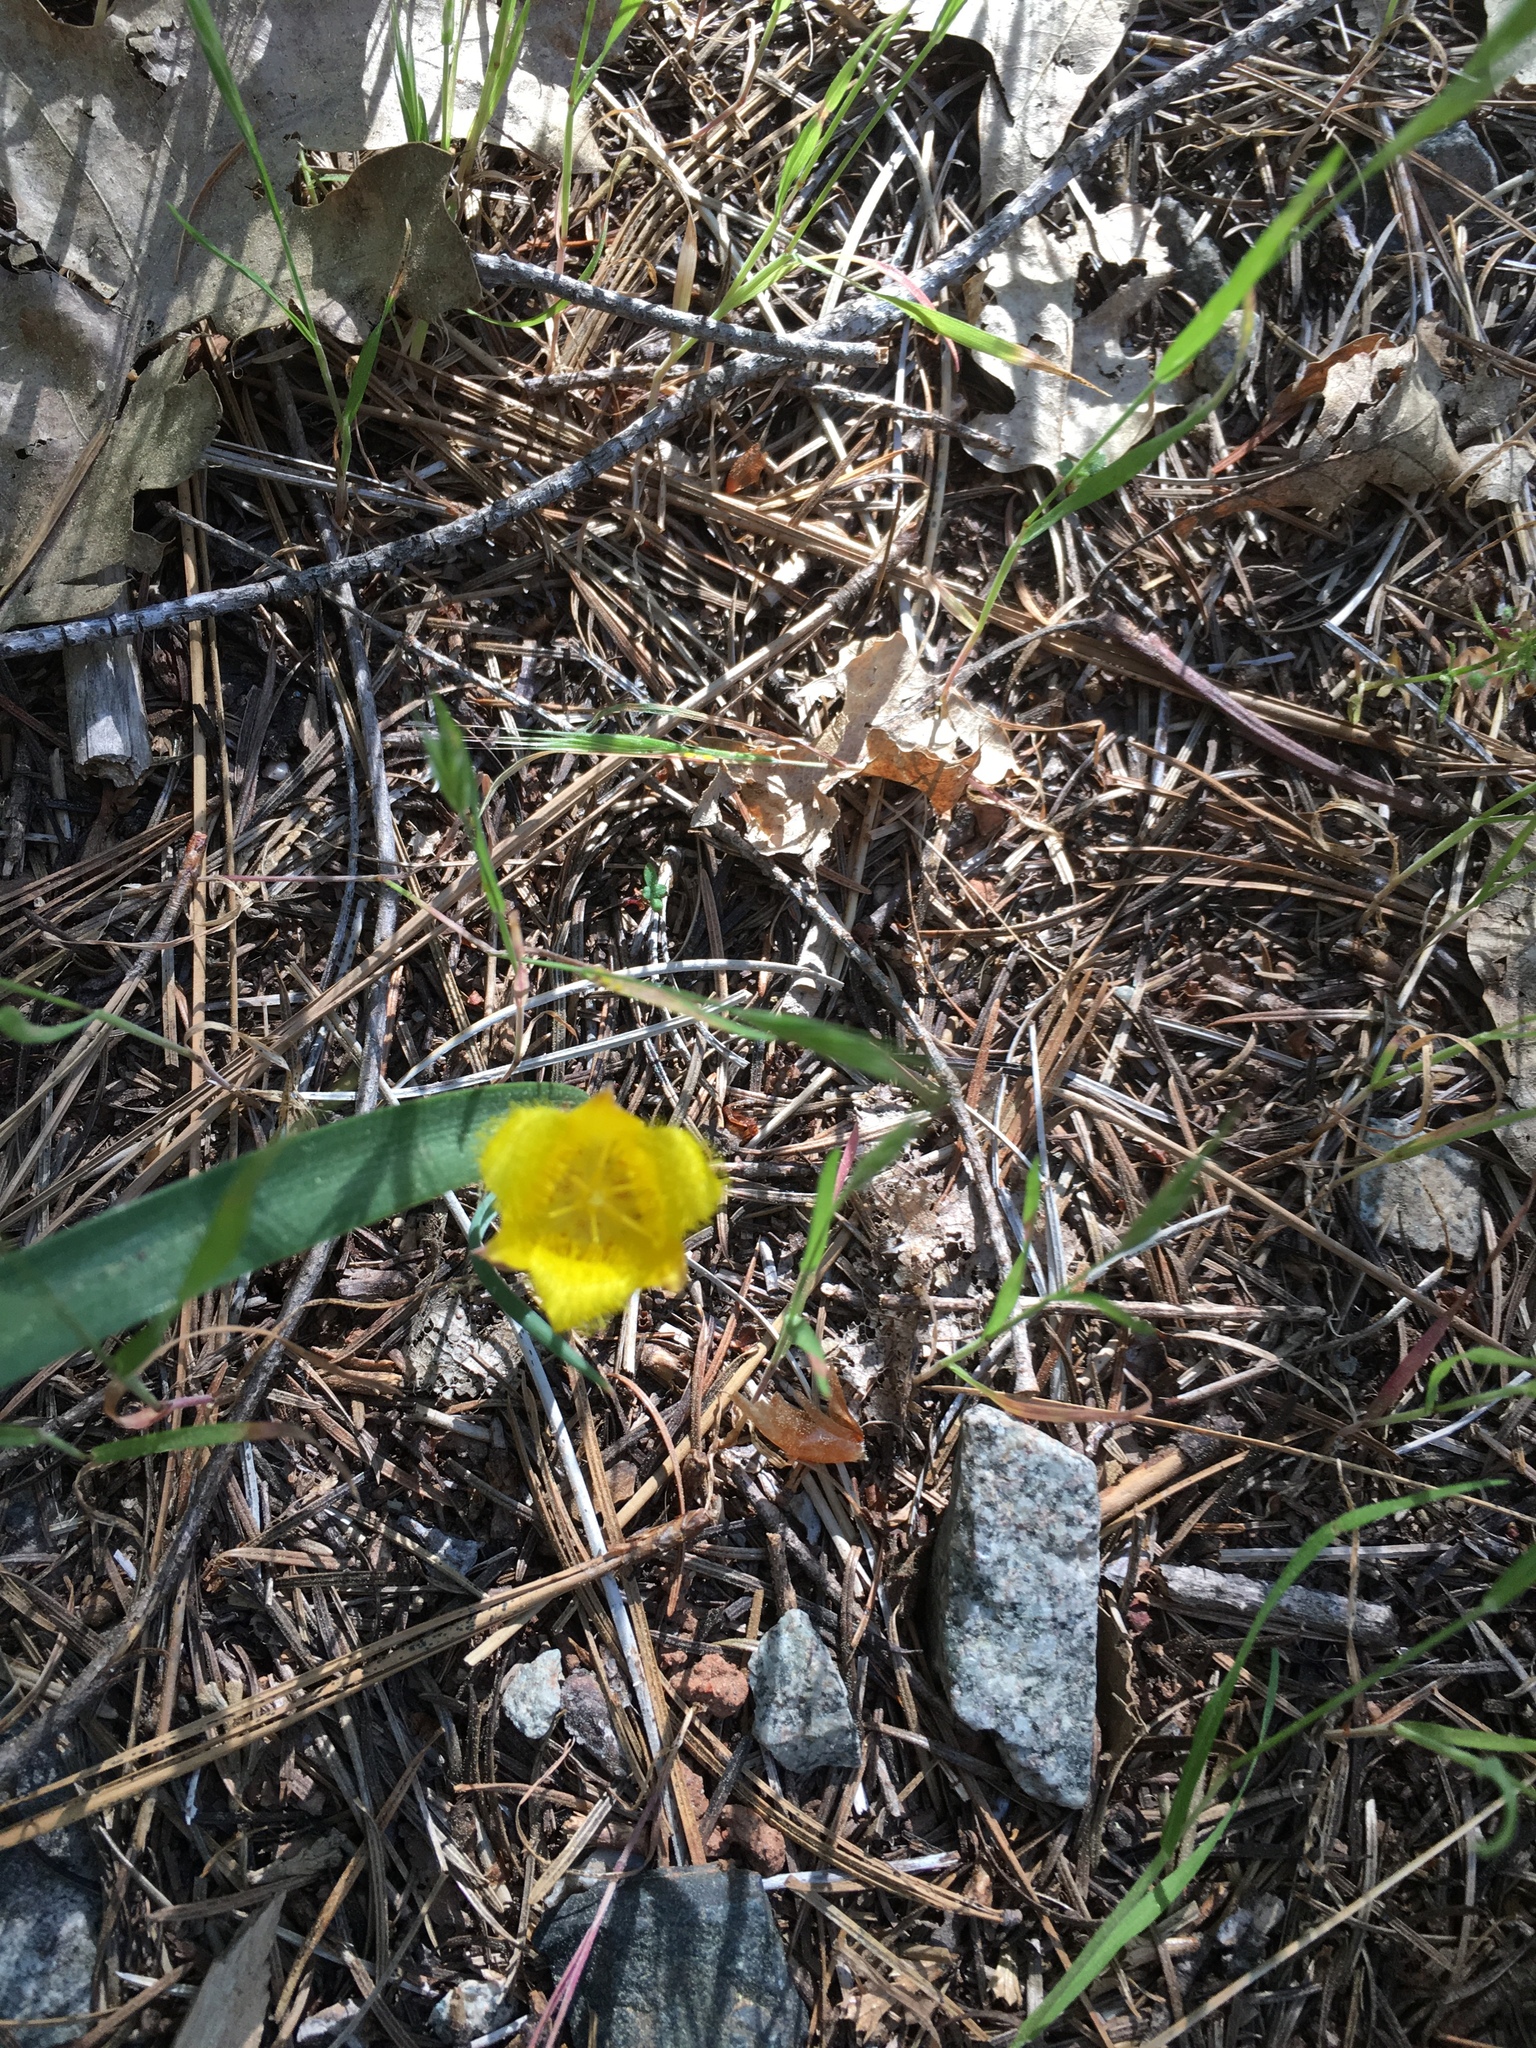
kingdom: Plantae
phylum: Tracheophyta
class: Liliopsida
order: Liliales
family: Liliaceae
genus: Calochortus
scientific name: Calochortus monophyllus
